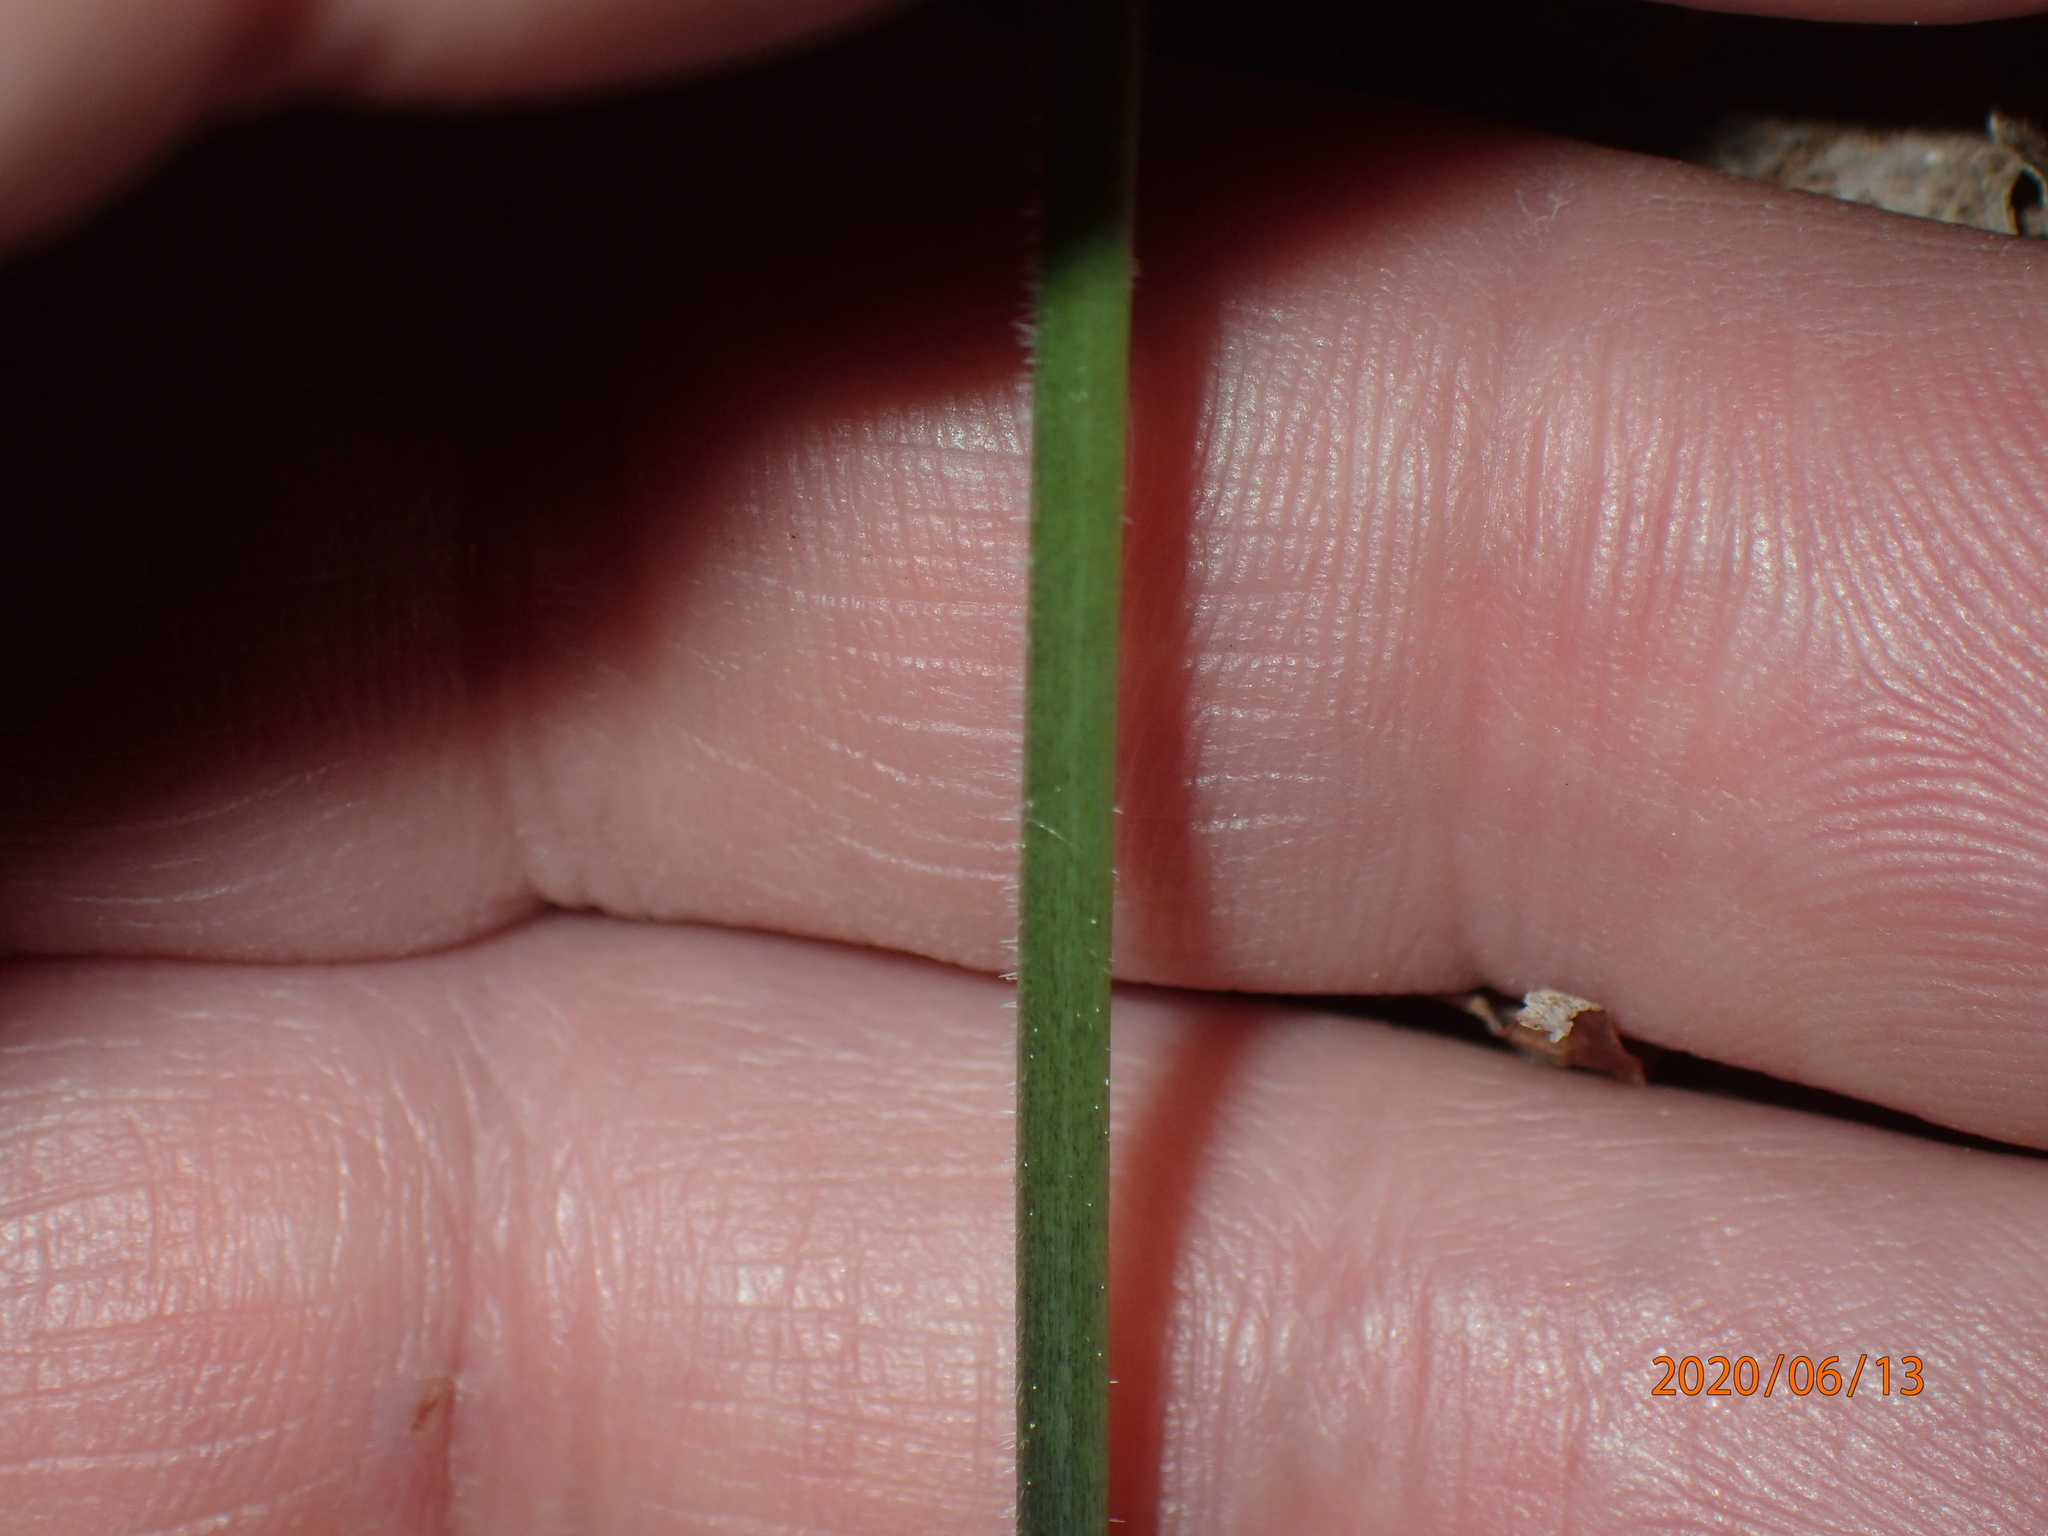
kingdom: Plantae
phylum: Tracheophyta
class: Magnoliopsida
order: Malpighiales
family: Violaceae
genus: Viola
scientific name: Viola eriocarpa
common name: Smooth yellow violet
